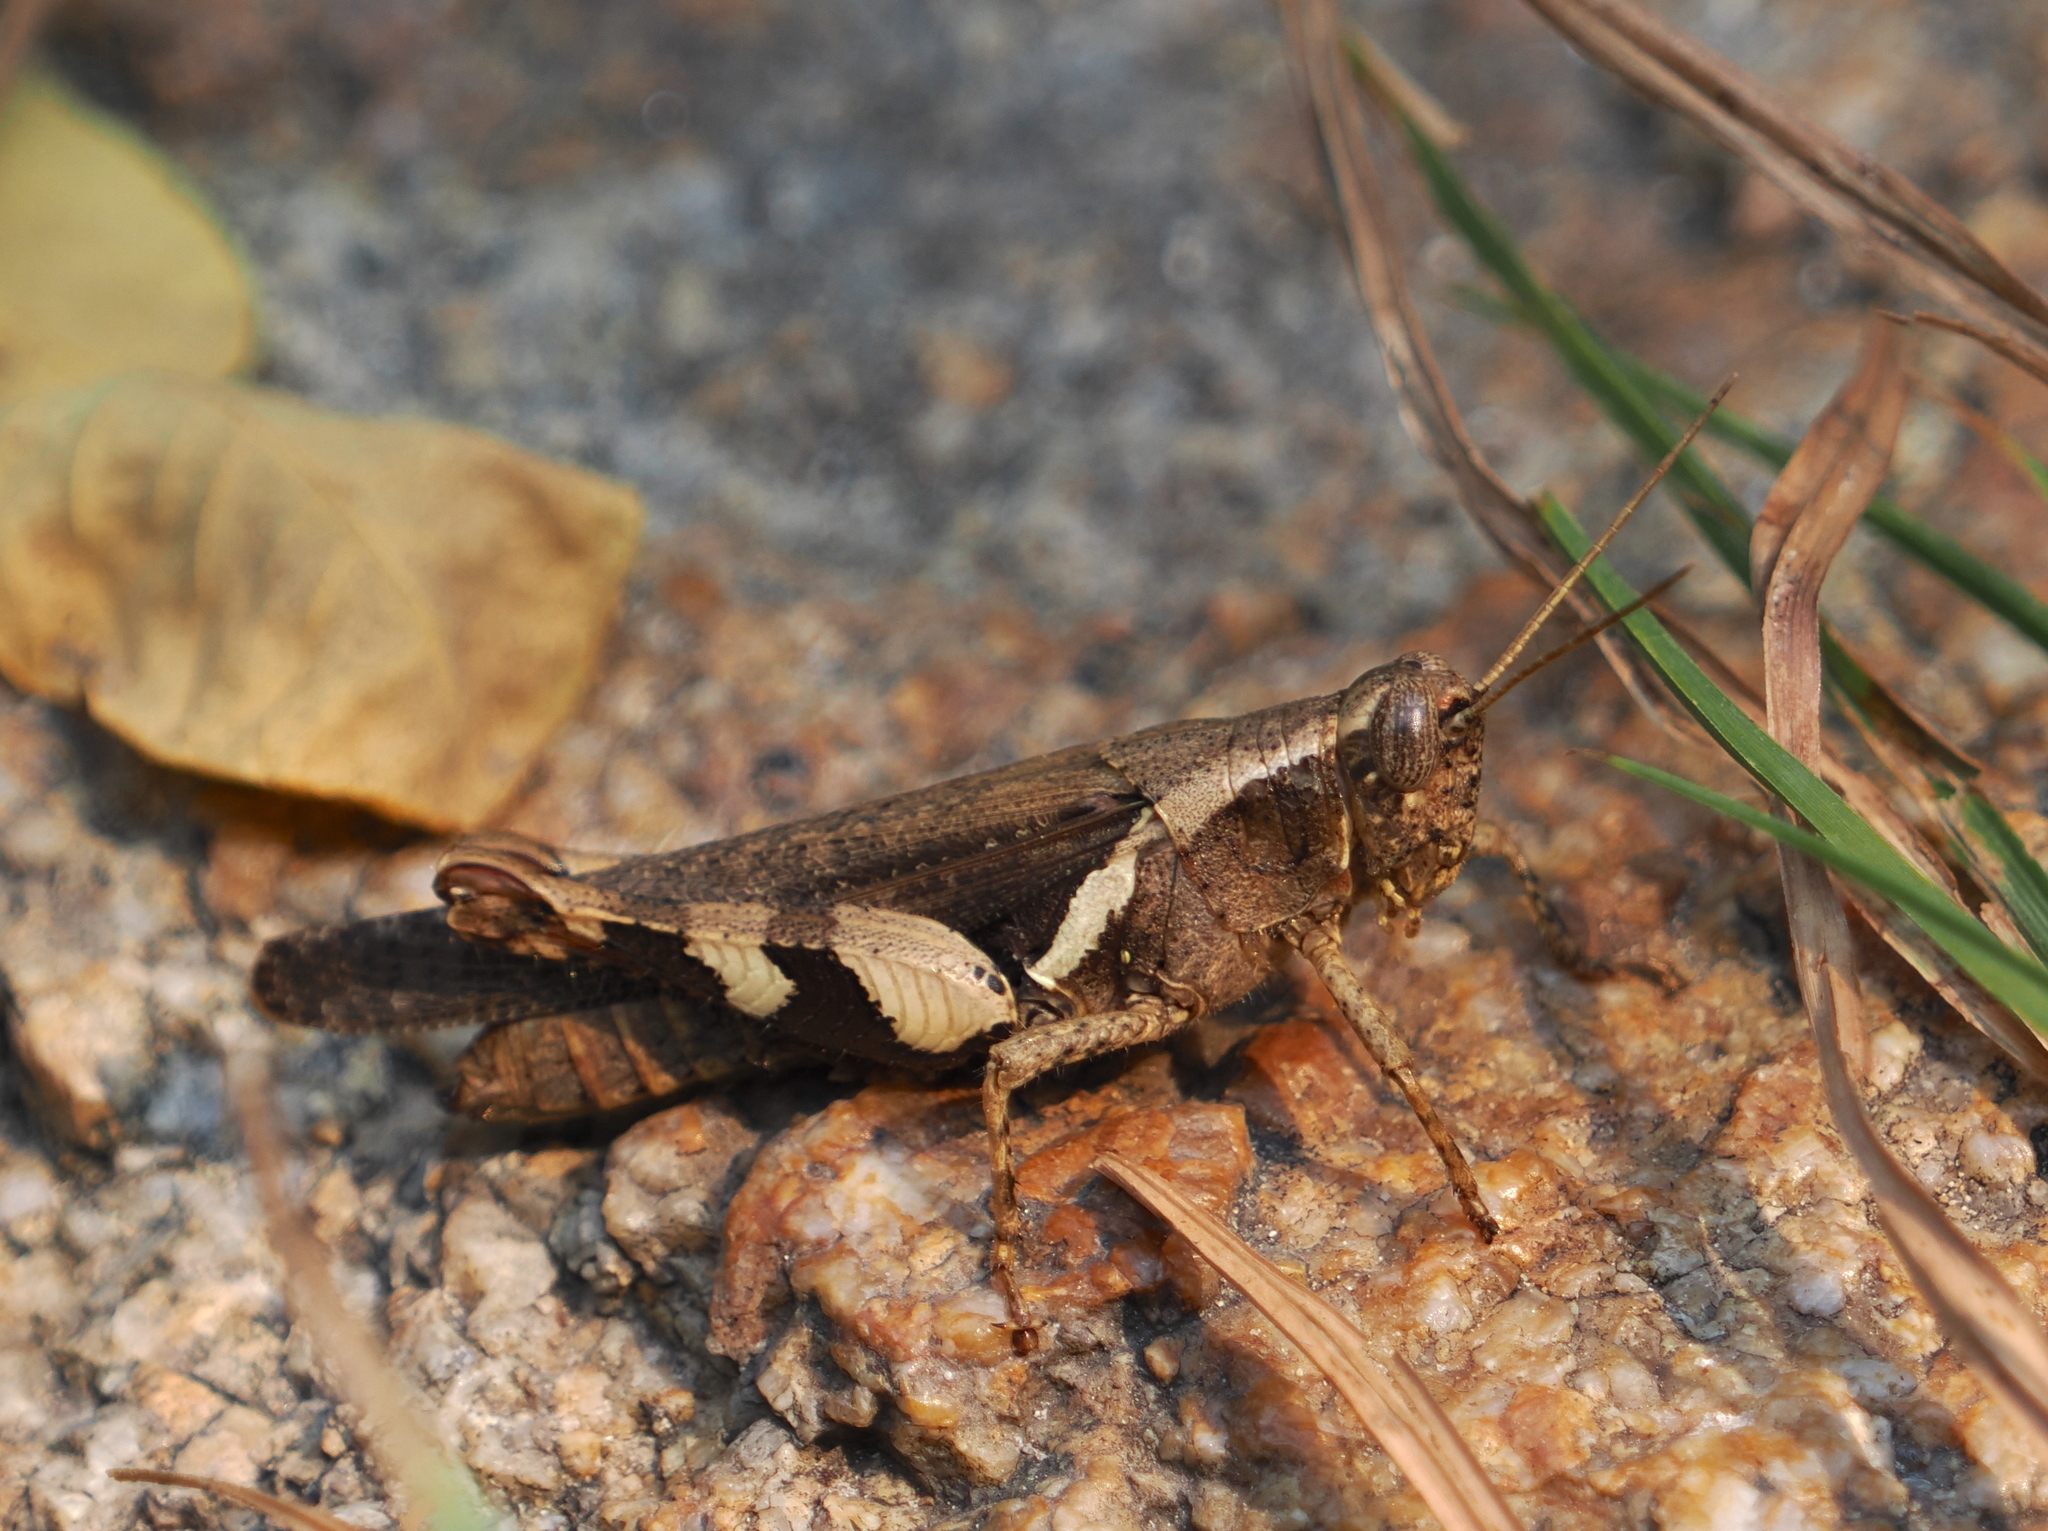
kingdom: Animalia
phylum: Arthropoda
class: Insecta
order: Orthoptera
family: Acrididae
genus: Xenocatantops
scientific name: Xenocatantops humile
